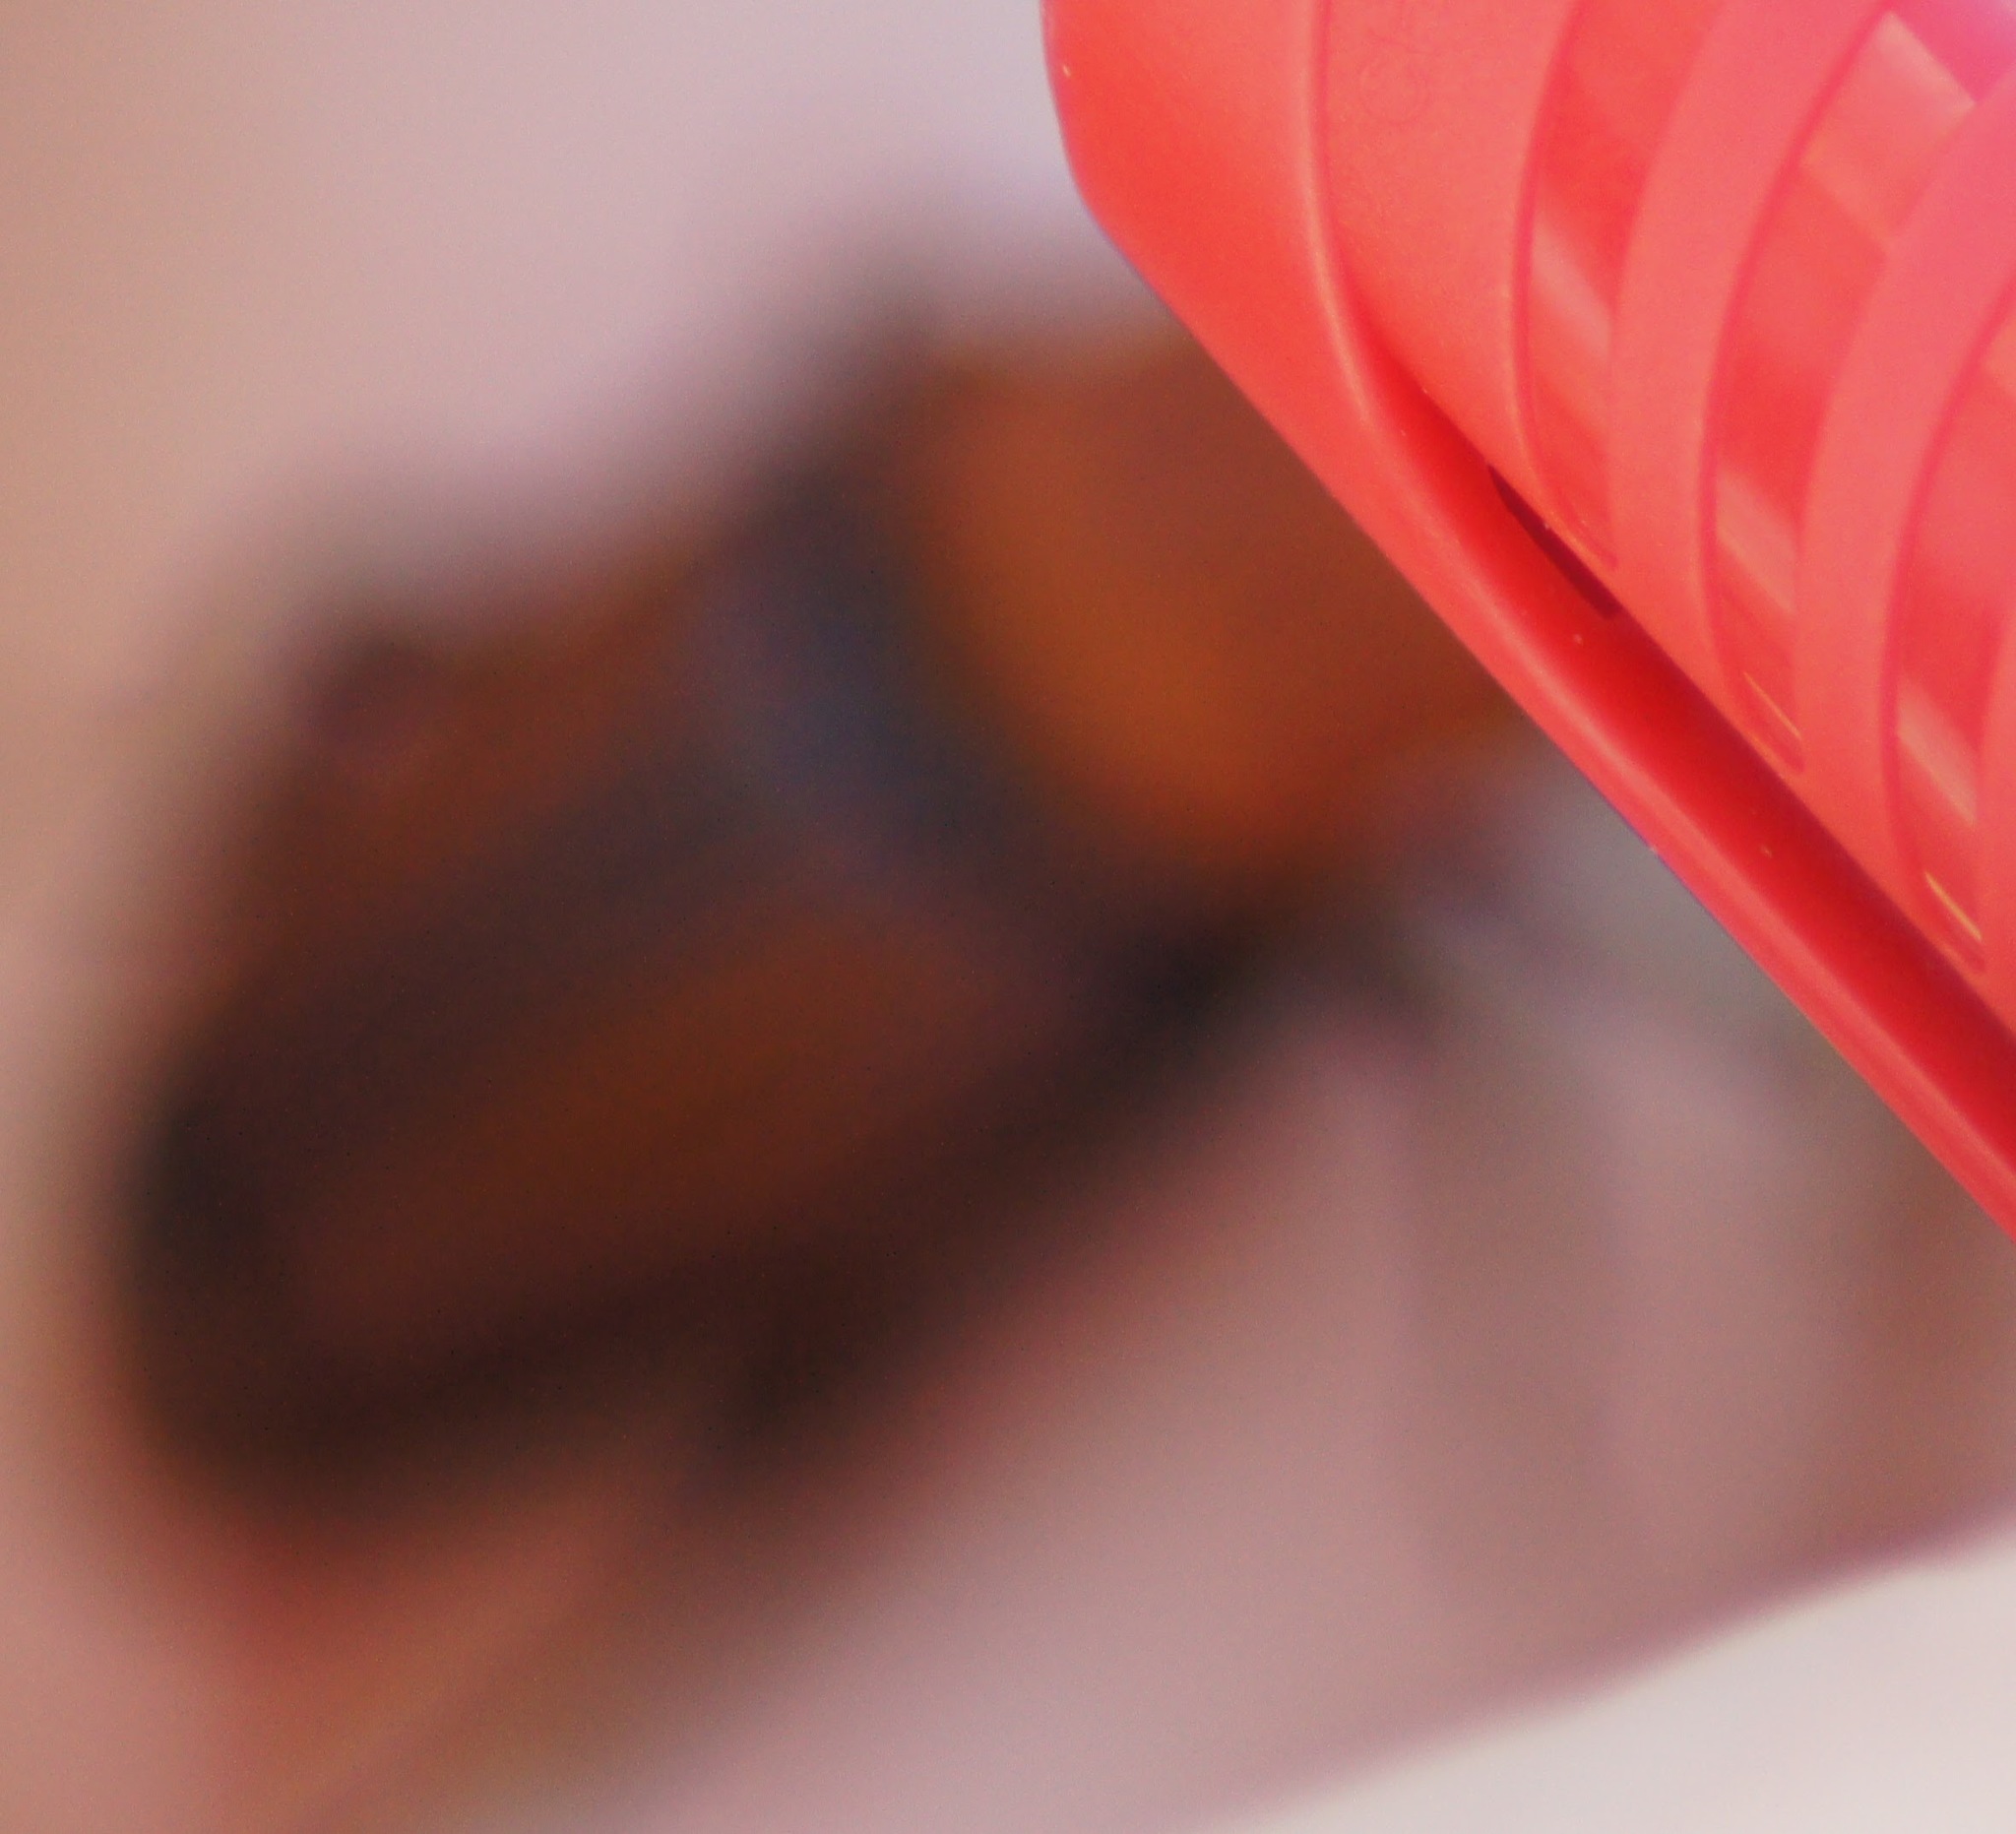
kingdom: Animalia
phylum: Arthropoda
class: Insecta
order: Coleoptera
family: Dryophthoridae
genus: Rhynchophorus
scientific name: Rhynchophorus ferrugineus
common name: Red palm weevil
